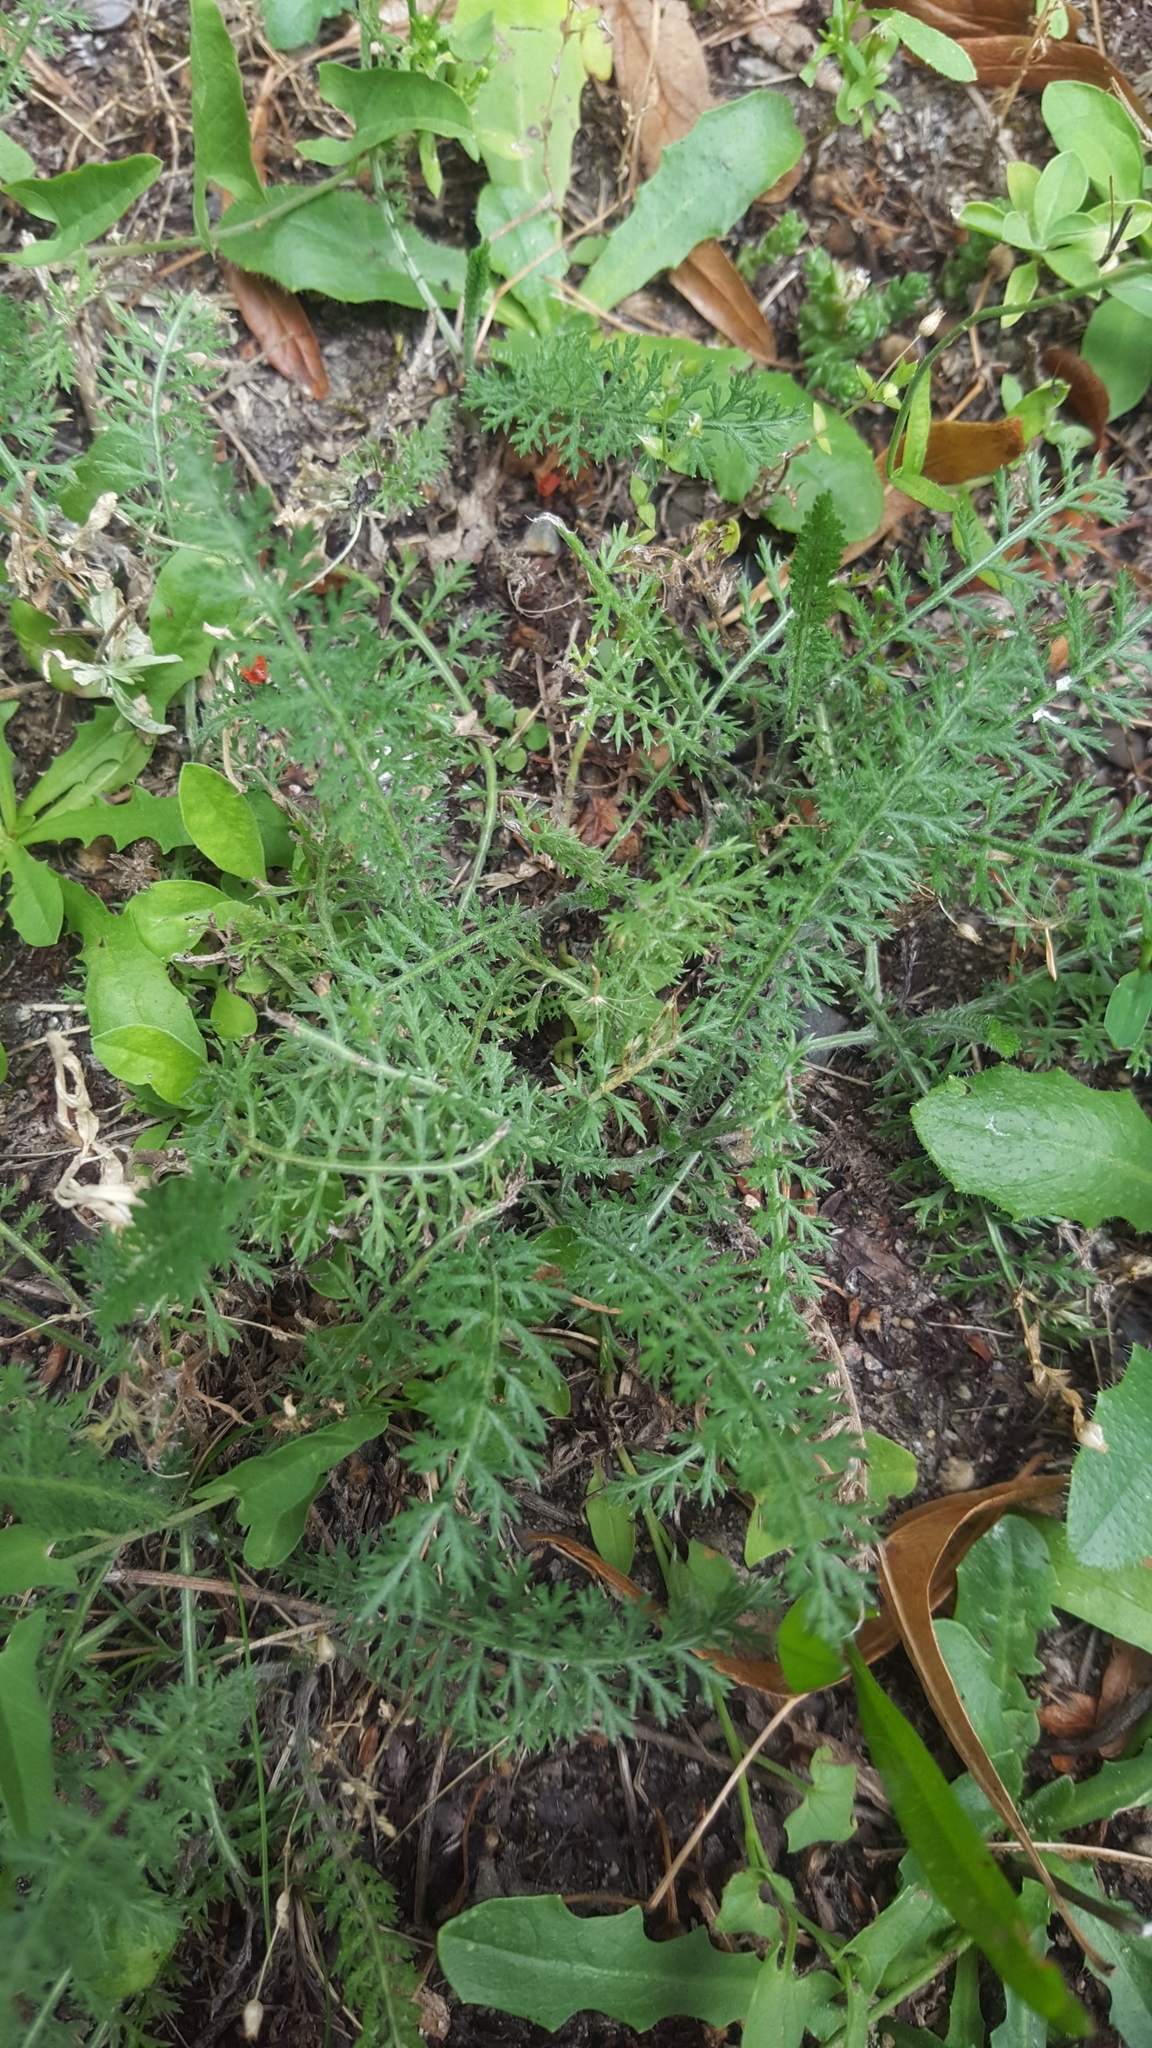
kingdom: Plantae
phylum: Tracheophyta
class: Magnoliopsida
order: Asterales
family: Asteraceae
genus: Achillea
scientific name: Achillea millefolium
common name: Yarrow
